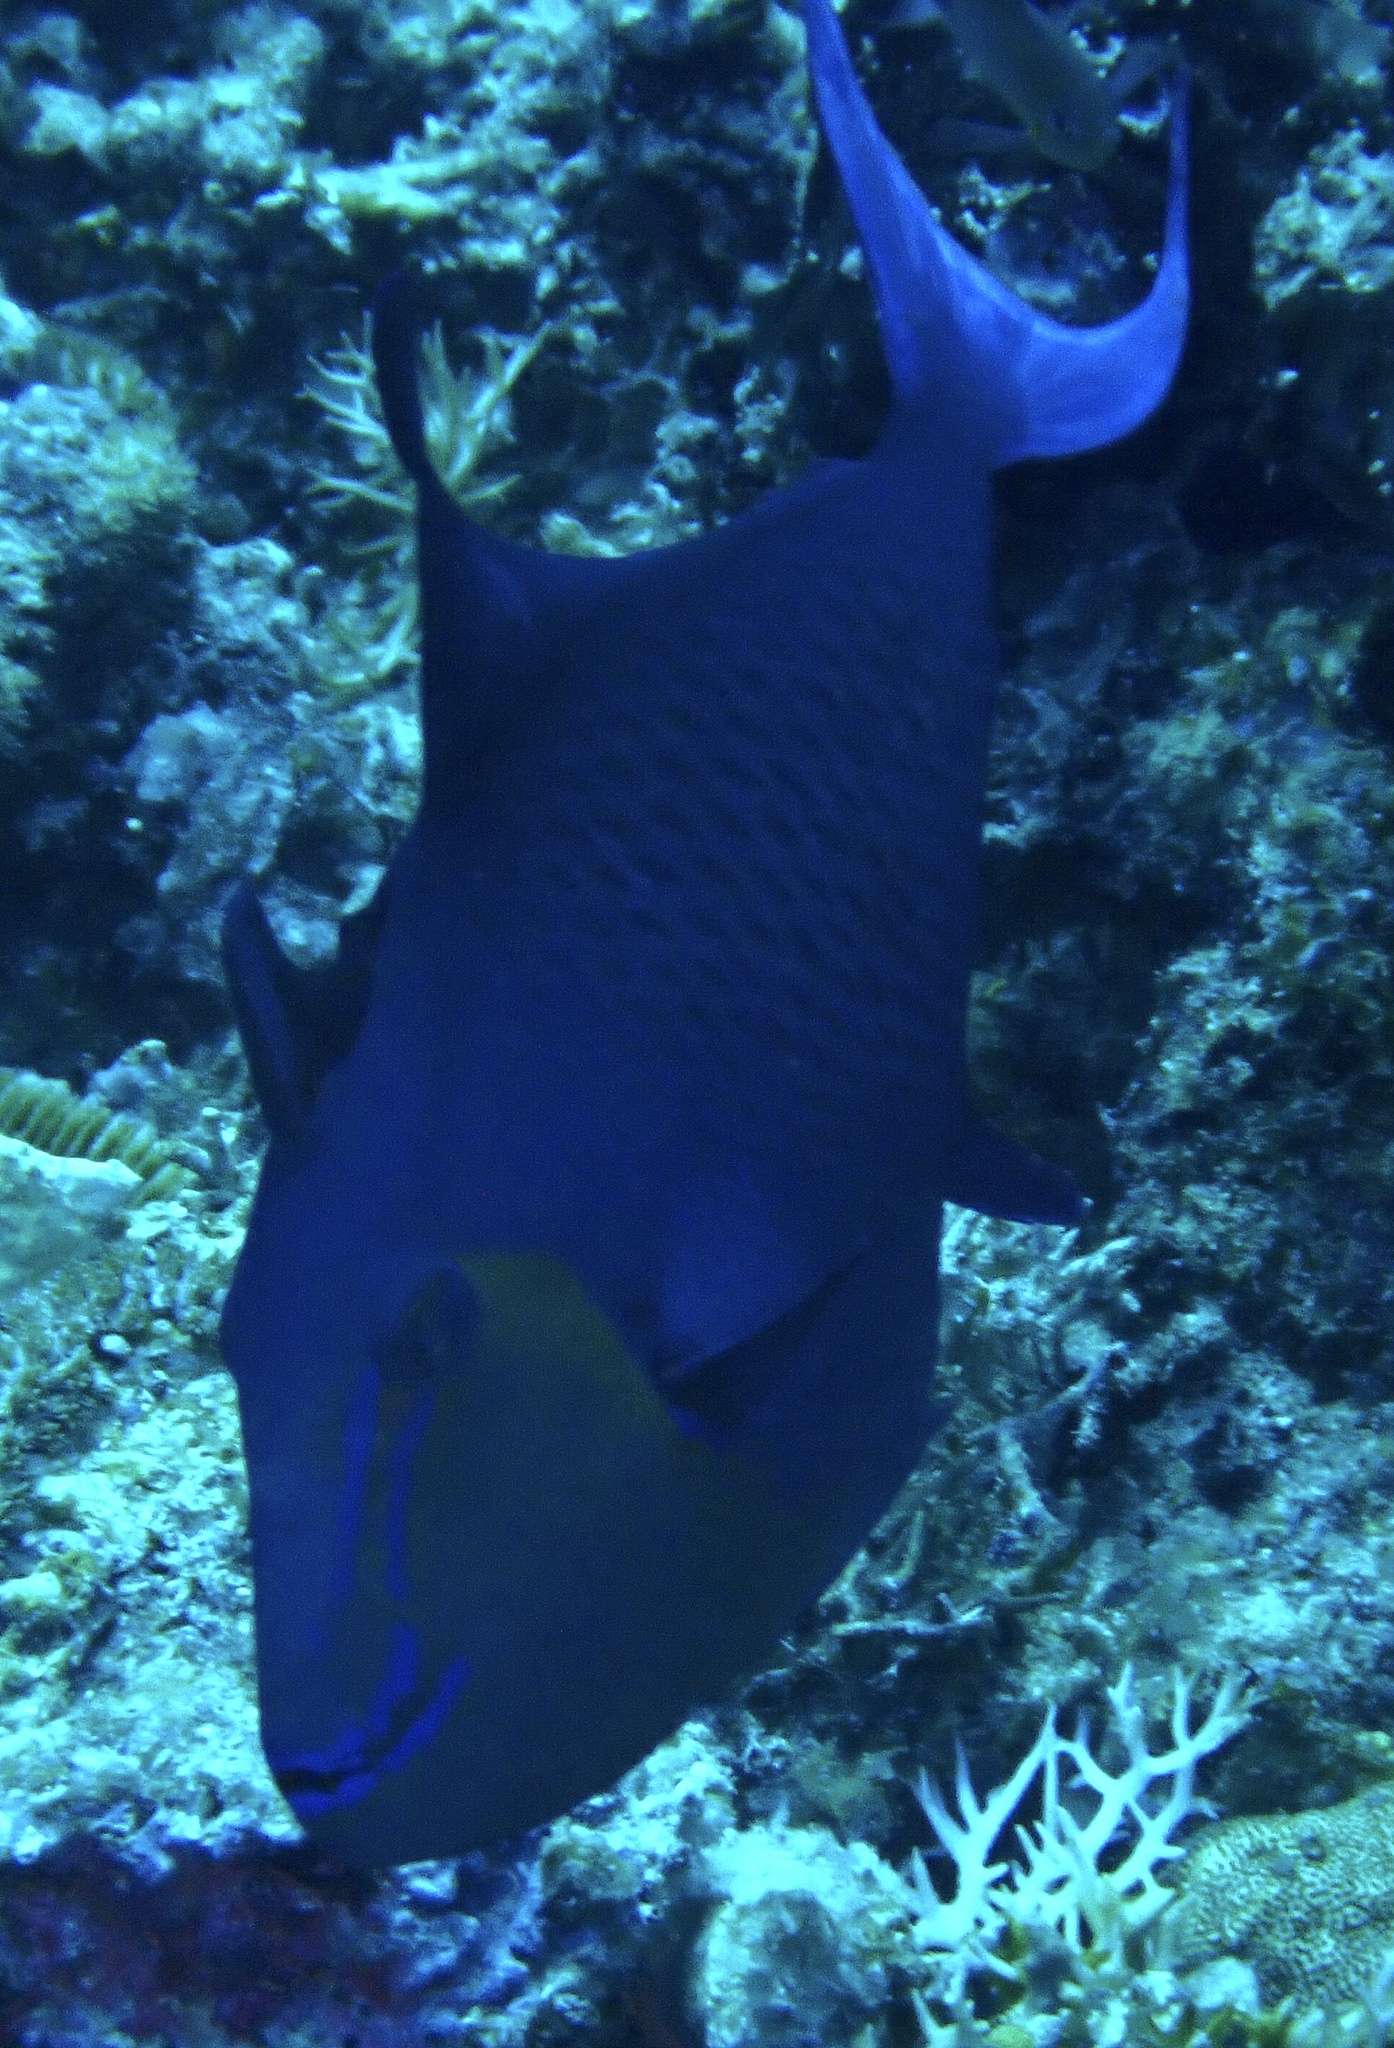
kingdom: Animalia
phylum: Chordata
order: Tetraodontiformes
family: Balistidae
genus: Odonus
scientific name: Odonus niger
